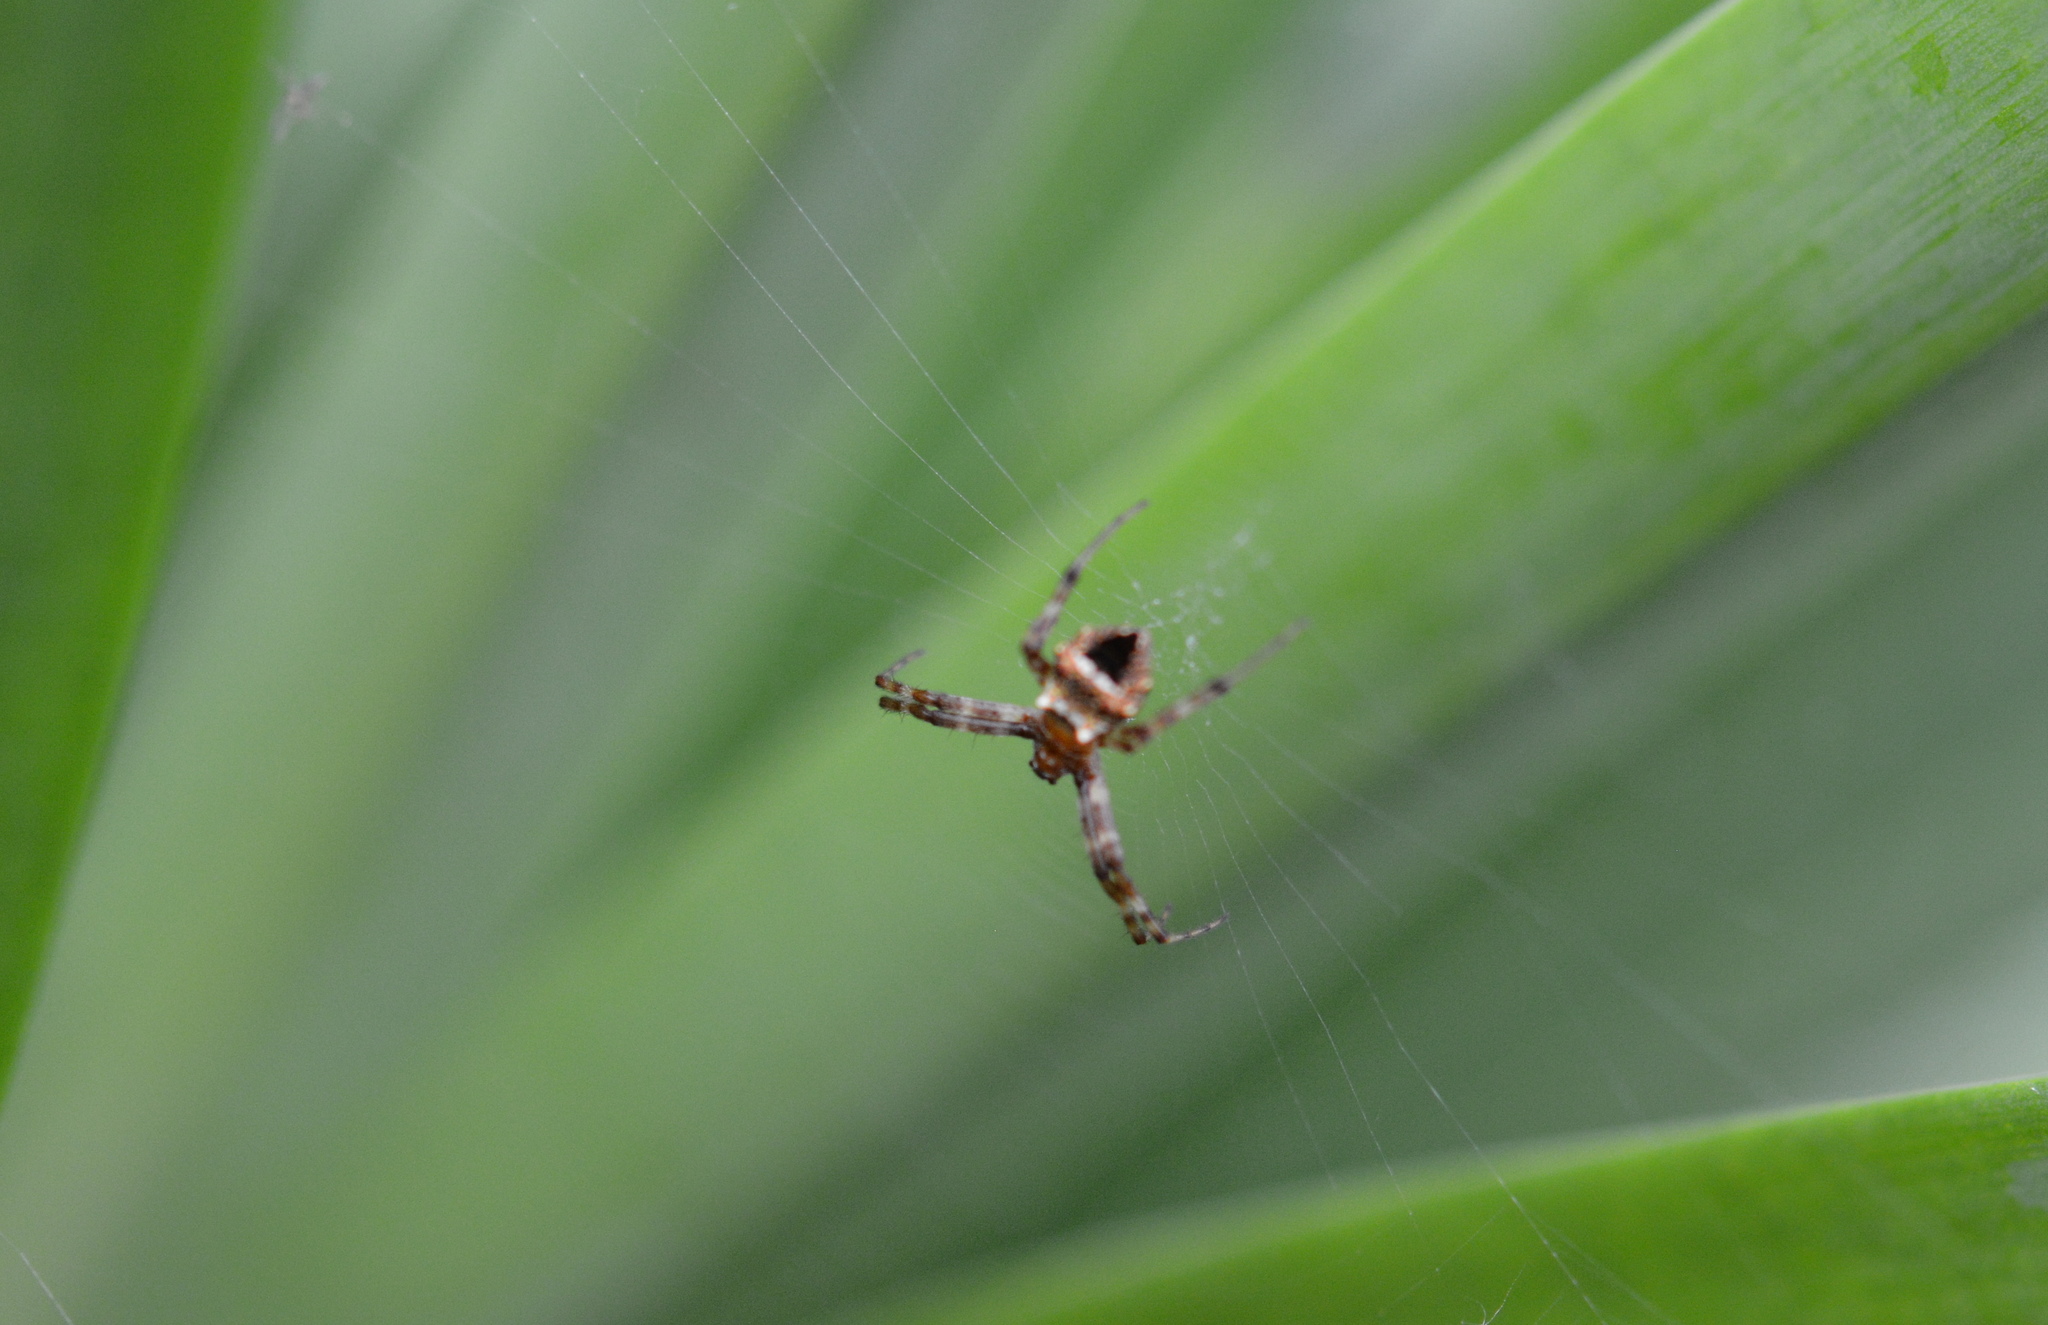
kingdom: Animalia
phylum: Arthropoda
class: Arachnida
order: Araneae
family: Araneidae
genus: Gea
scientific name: Gea heptagon
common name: Orb weavers
